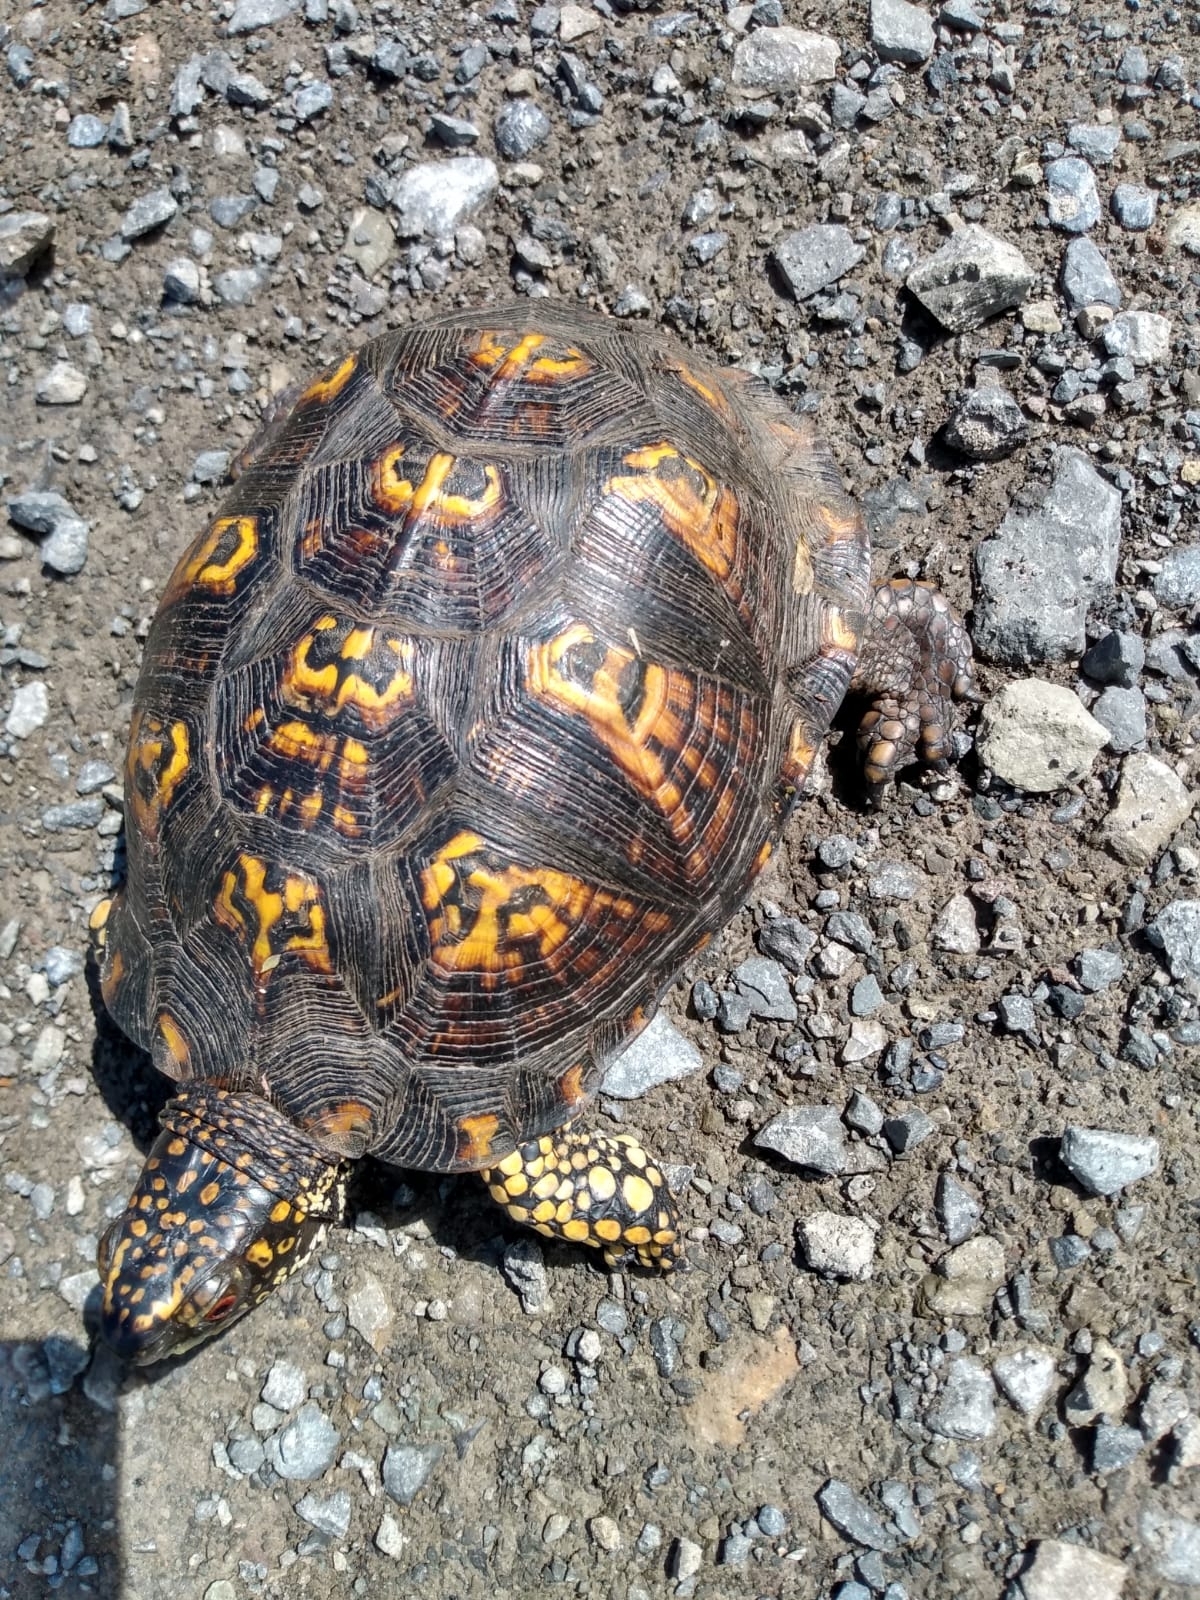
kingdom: Animalia
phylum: Chordata
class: Testudines
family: Emydidae
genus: Terrapene
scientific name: Terrapene carolina
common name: Common box turtle
